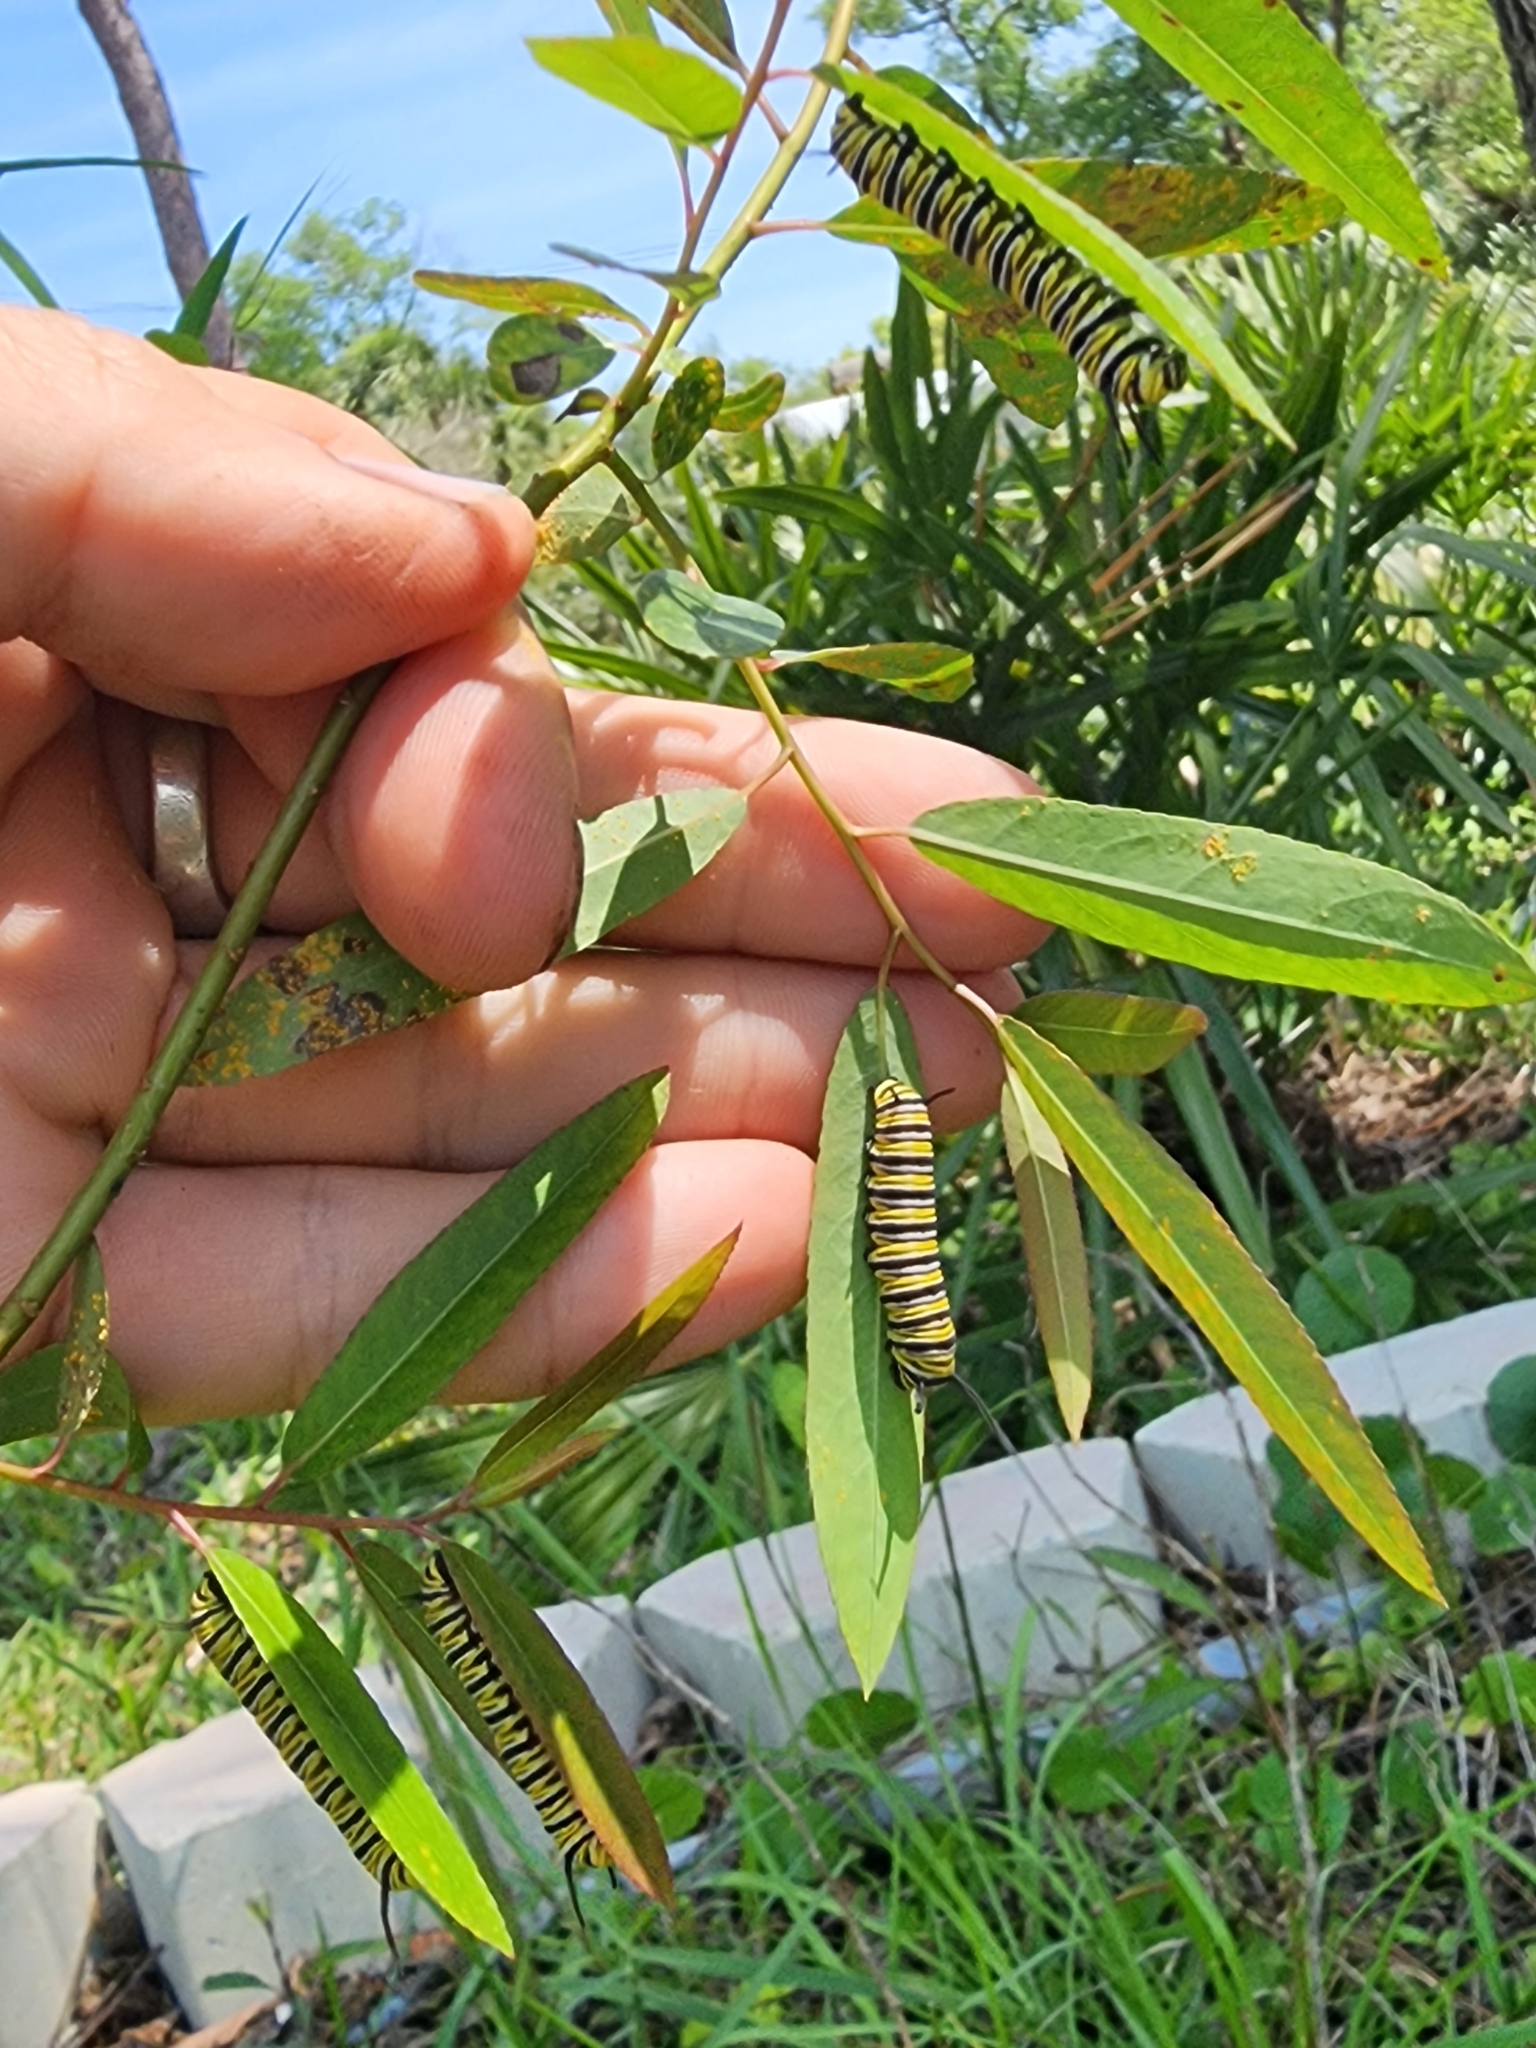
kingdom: Animalia
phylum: Arthropoda
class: Insecta
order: Lepidoptera
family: Nymphalidae
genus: Danaus
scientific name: Danaus plexippus
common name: Monarch
